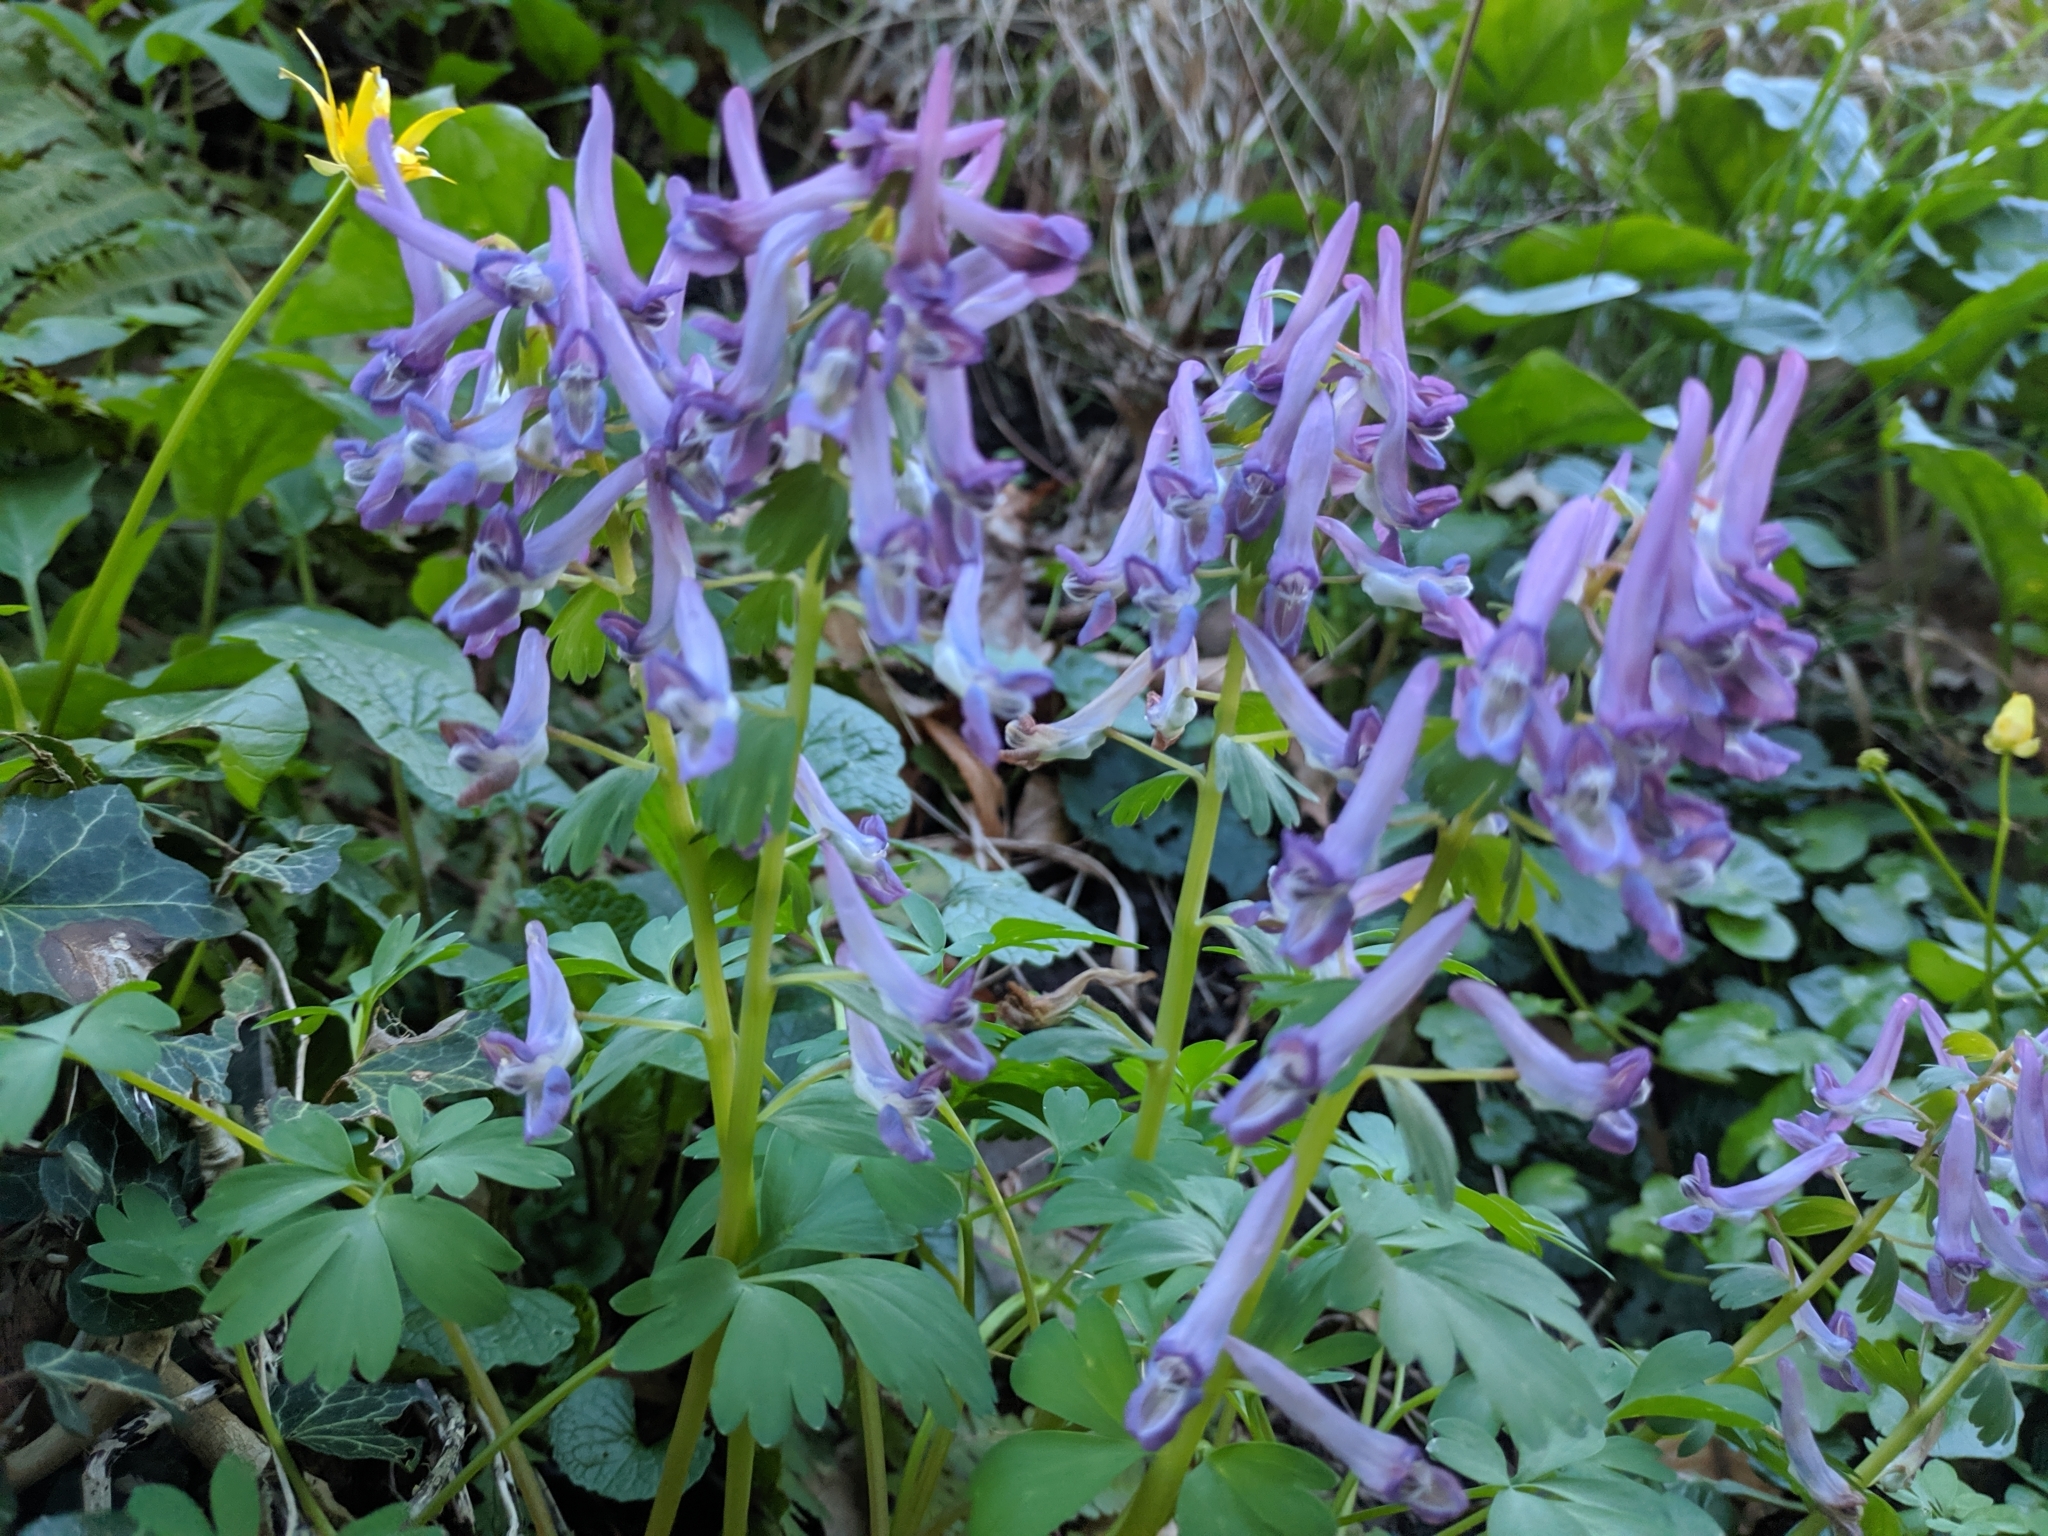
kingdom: Plantae
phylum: Tracheophyta
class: Magnoliopsida
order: Ranunculales
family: Papaveraceae
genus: Corydalis
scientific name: Corydalis solida
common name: Bird-in-a-bush
